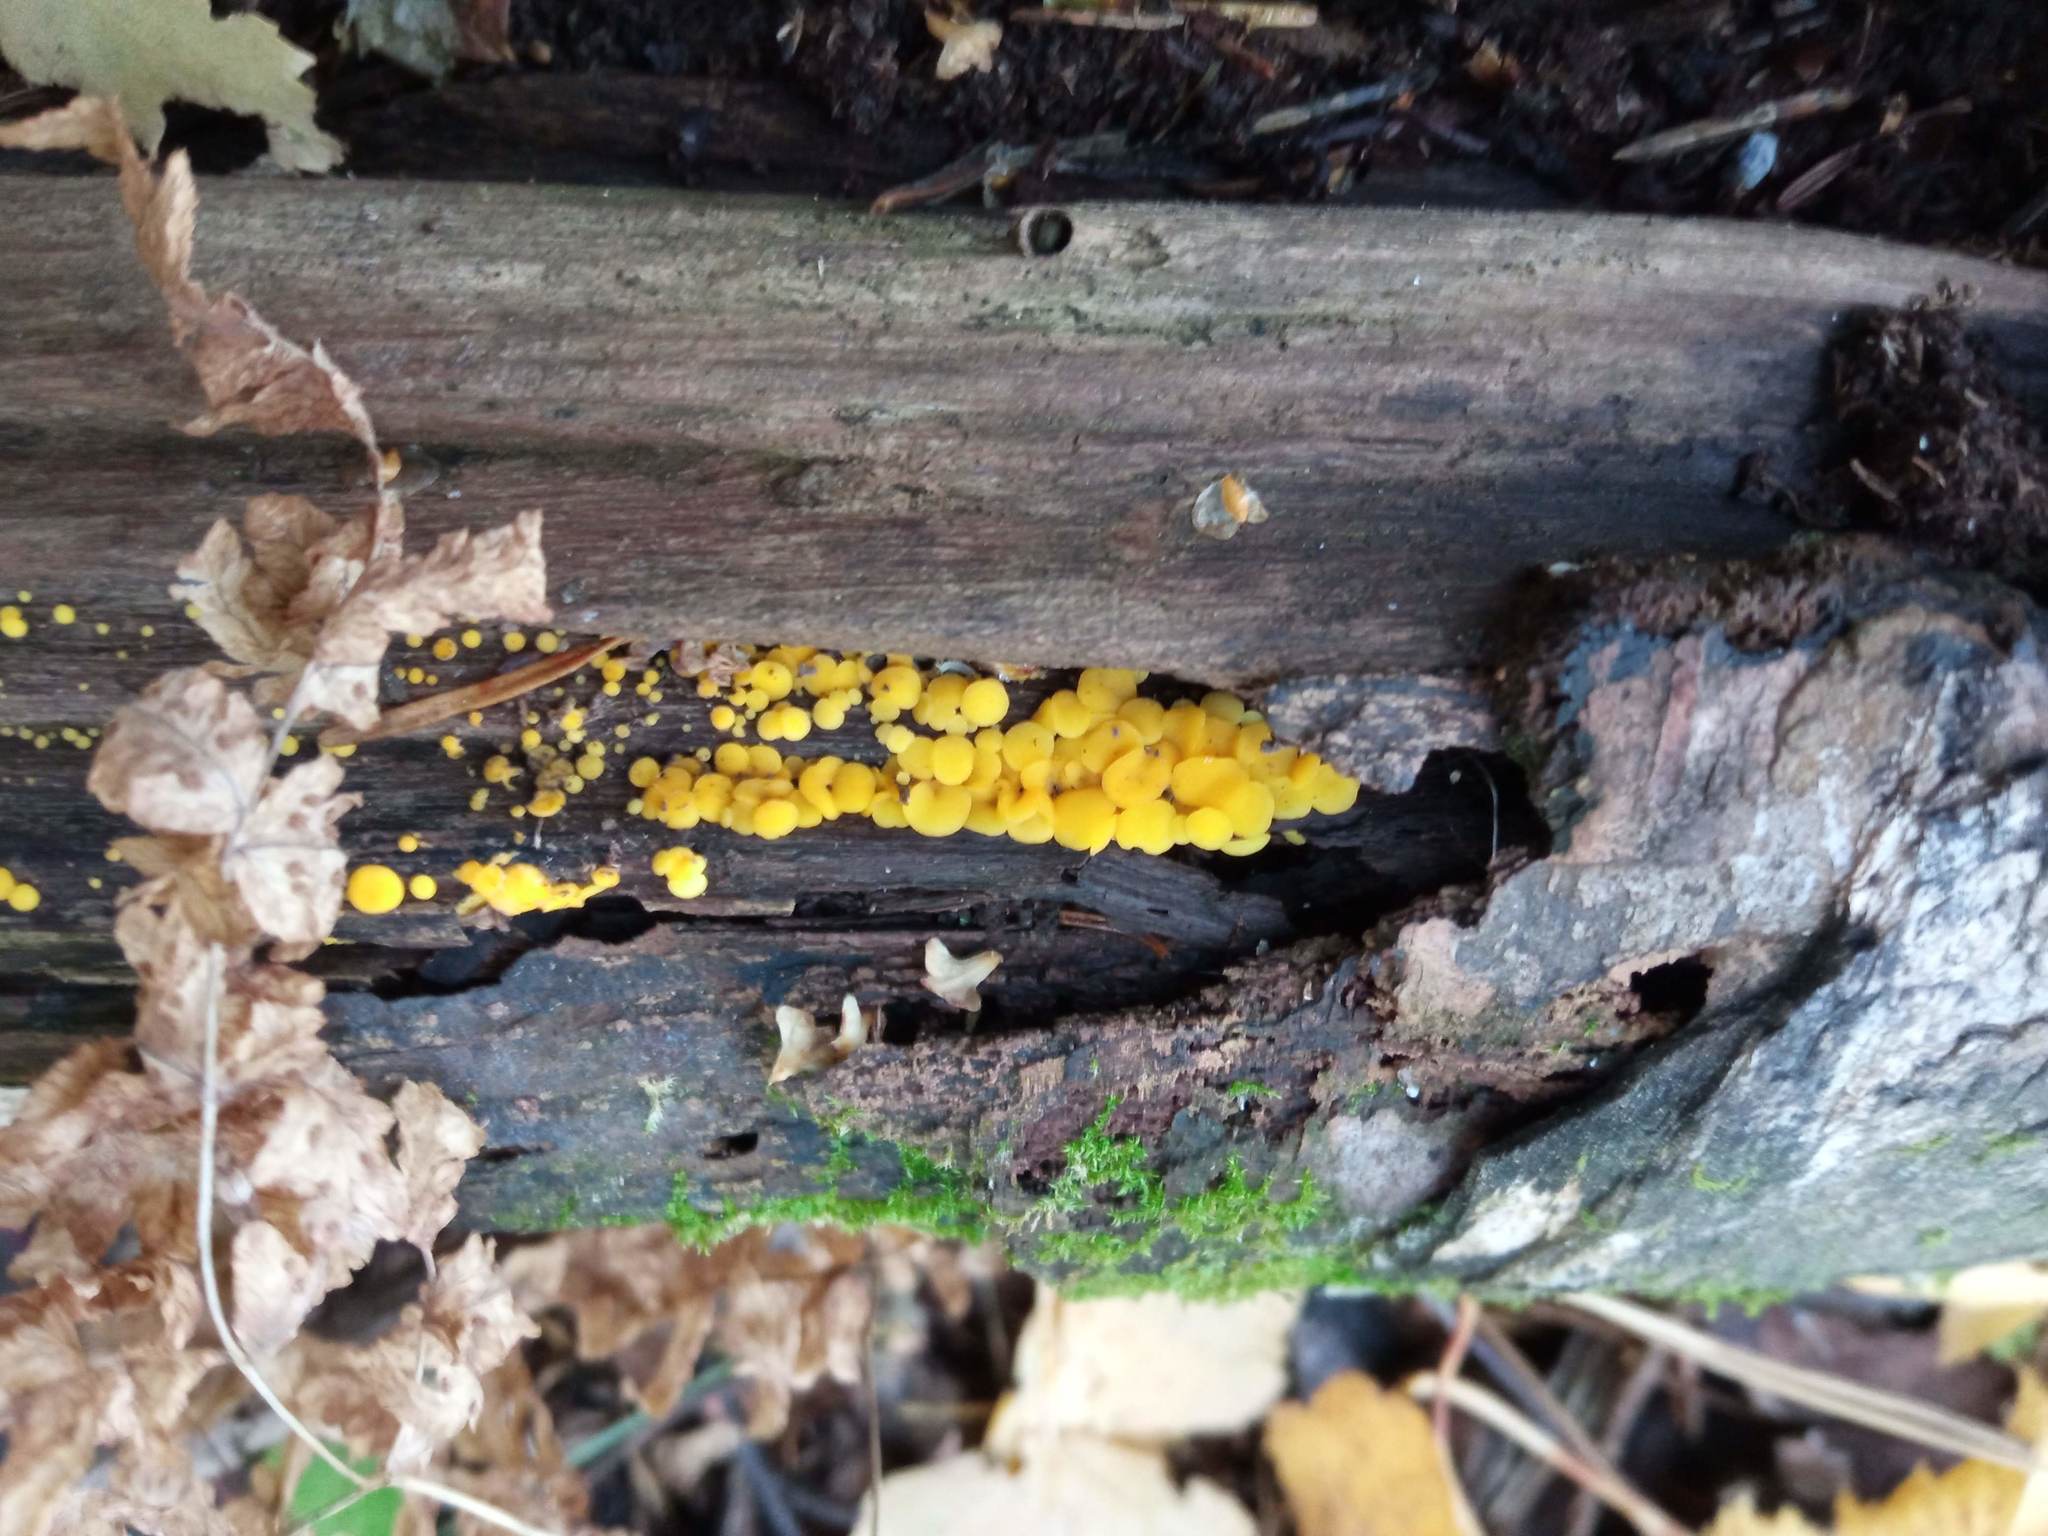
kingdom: Fungi
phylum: Ascomycota
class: Leotiomycetes
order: Helotiales
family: Pezizellaceae
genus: Calycina
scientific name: Calycina citrina
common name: Yellow fairy cups
